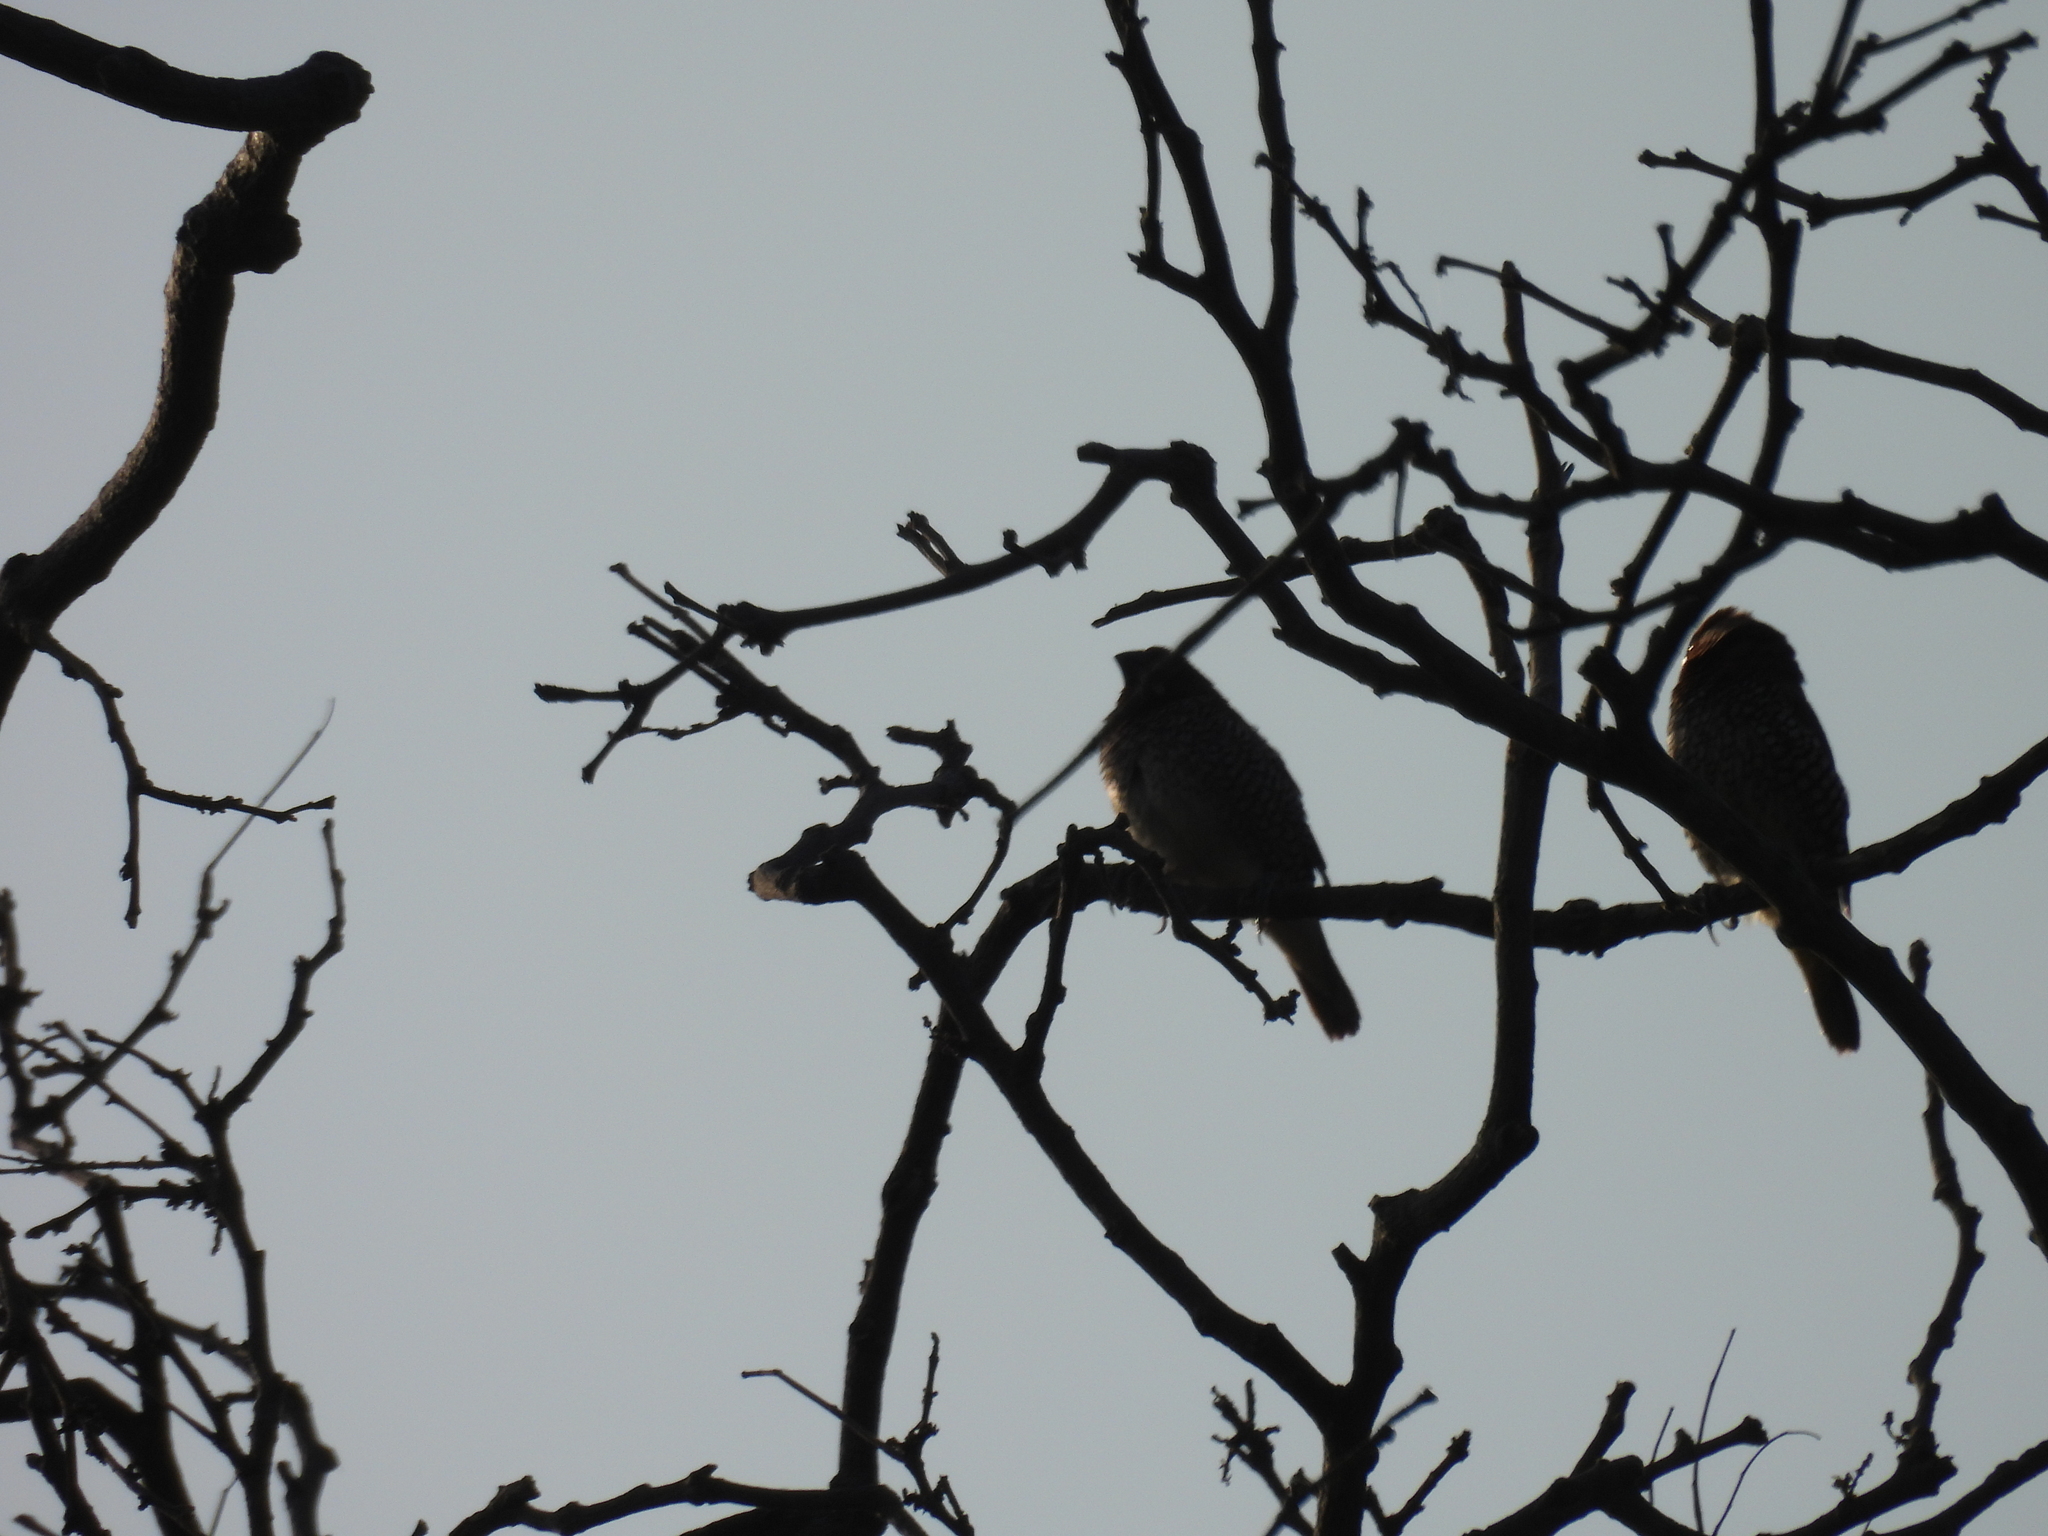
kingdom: Animalia
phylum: Chordata
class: Aves
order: Passeriformes
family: Estrildidae
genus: Lonchura
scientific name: Lonchura punctulata
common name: Scaly-breasted munia
